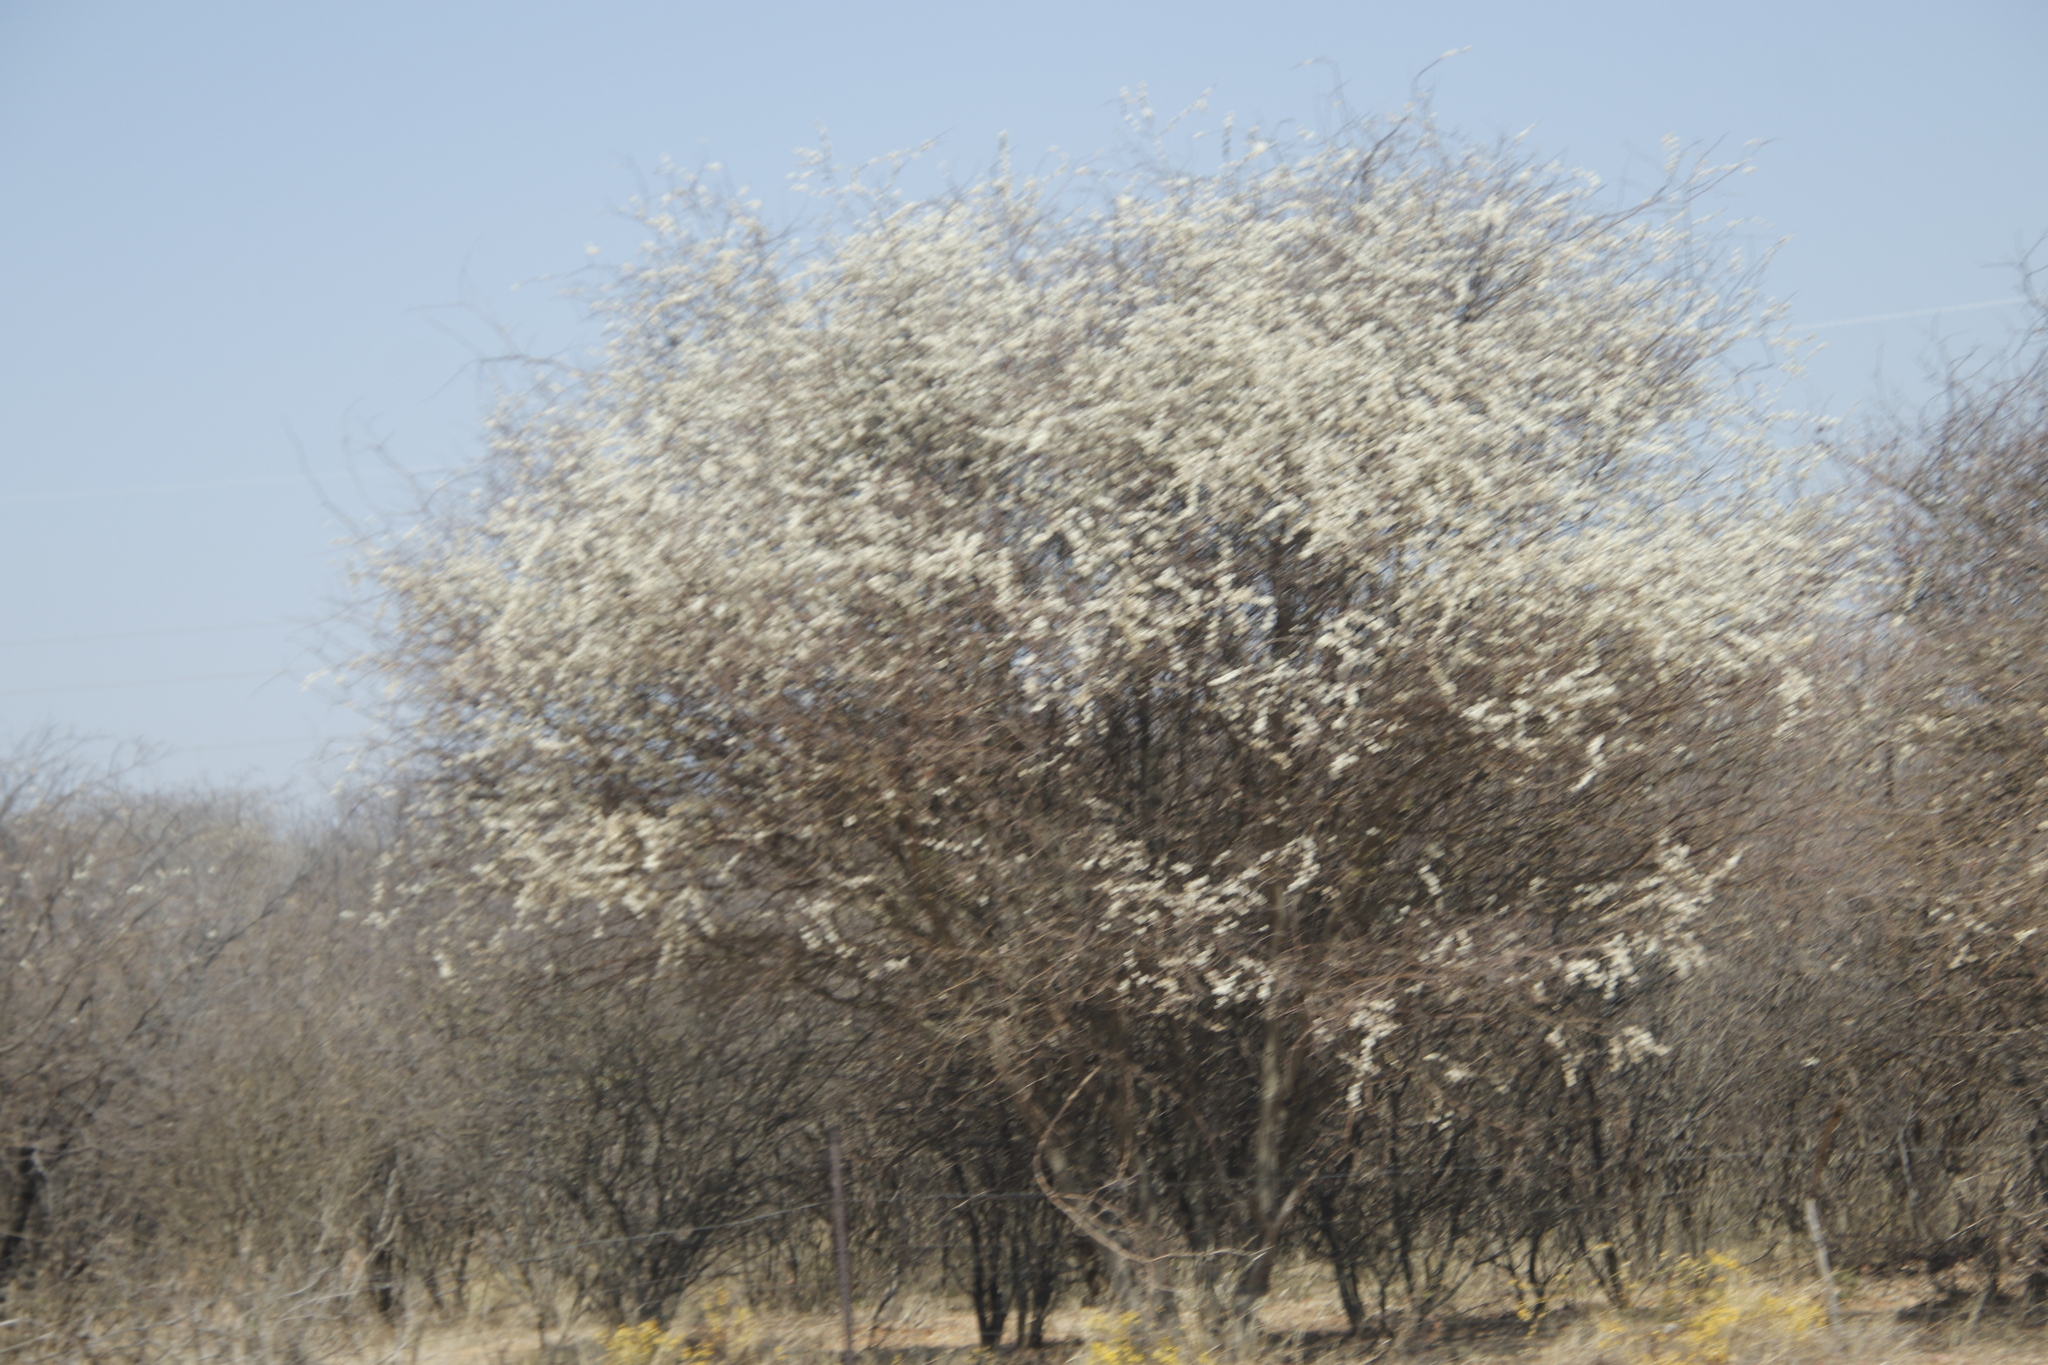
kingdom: Plantae
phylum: Tracheophyta
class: Magnoliopsida
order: Fabales
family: Fabaceae
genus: Senegalia
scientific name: Senegalia mellifera
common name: Hookthorn
